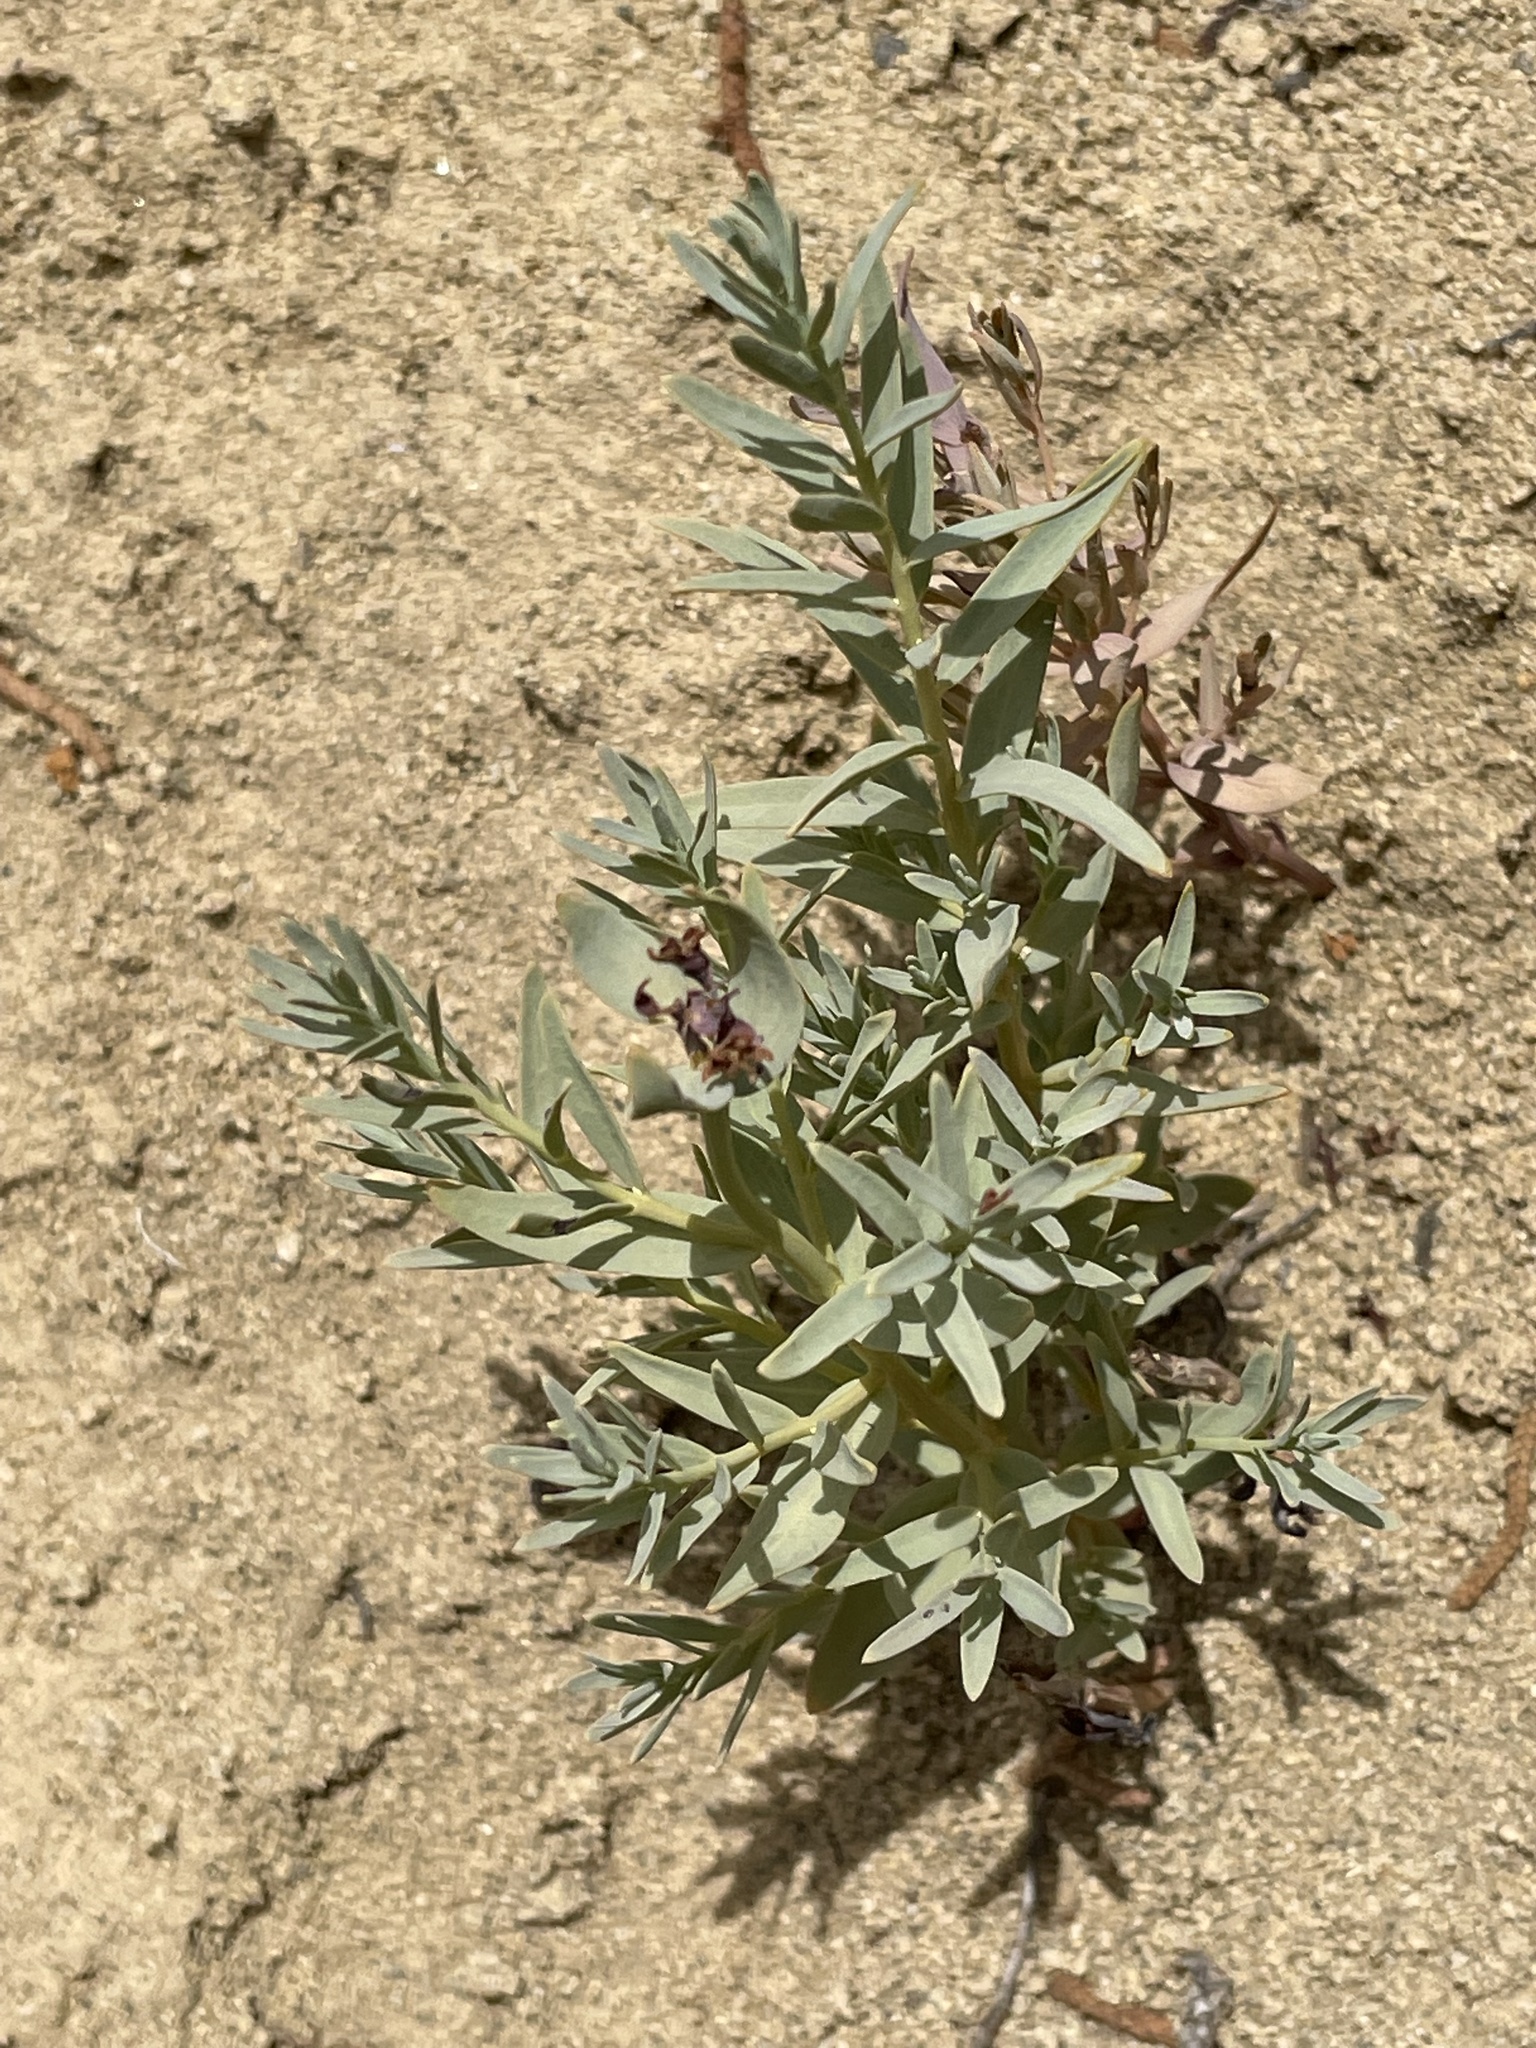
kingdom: Plantae
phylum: Tracheophyta
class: Magnoliopsida
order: Santalales
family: Comandraceae
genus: Comandra
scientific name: Comandra umbellata
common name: Bastard toadflax
